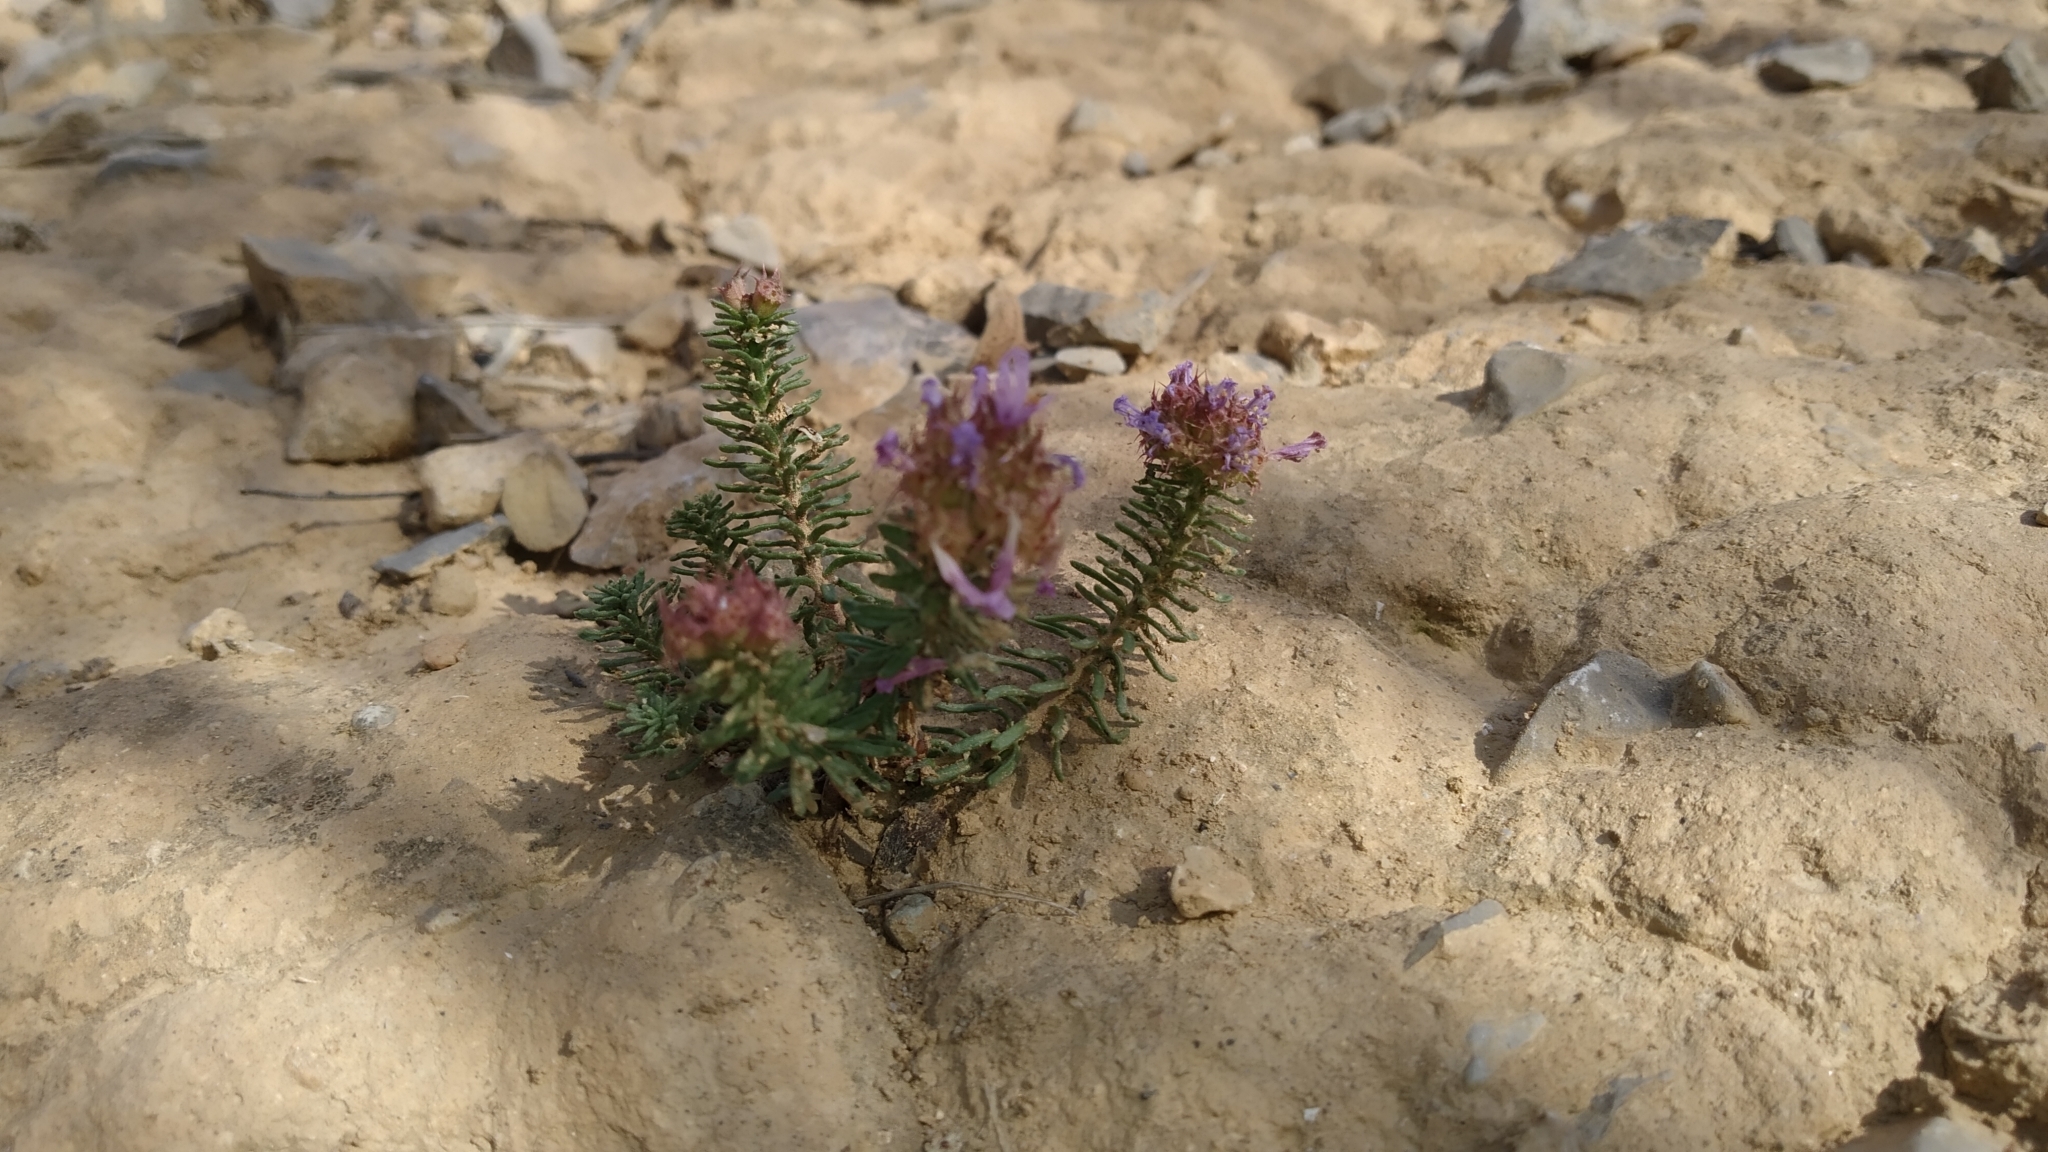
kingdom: Plantae
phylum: Tracheophyta
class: Magnoliopsida
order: Ericales
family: Primulaceae
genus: Coris
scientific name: Coris monspeliensis
